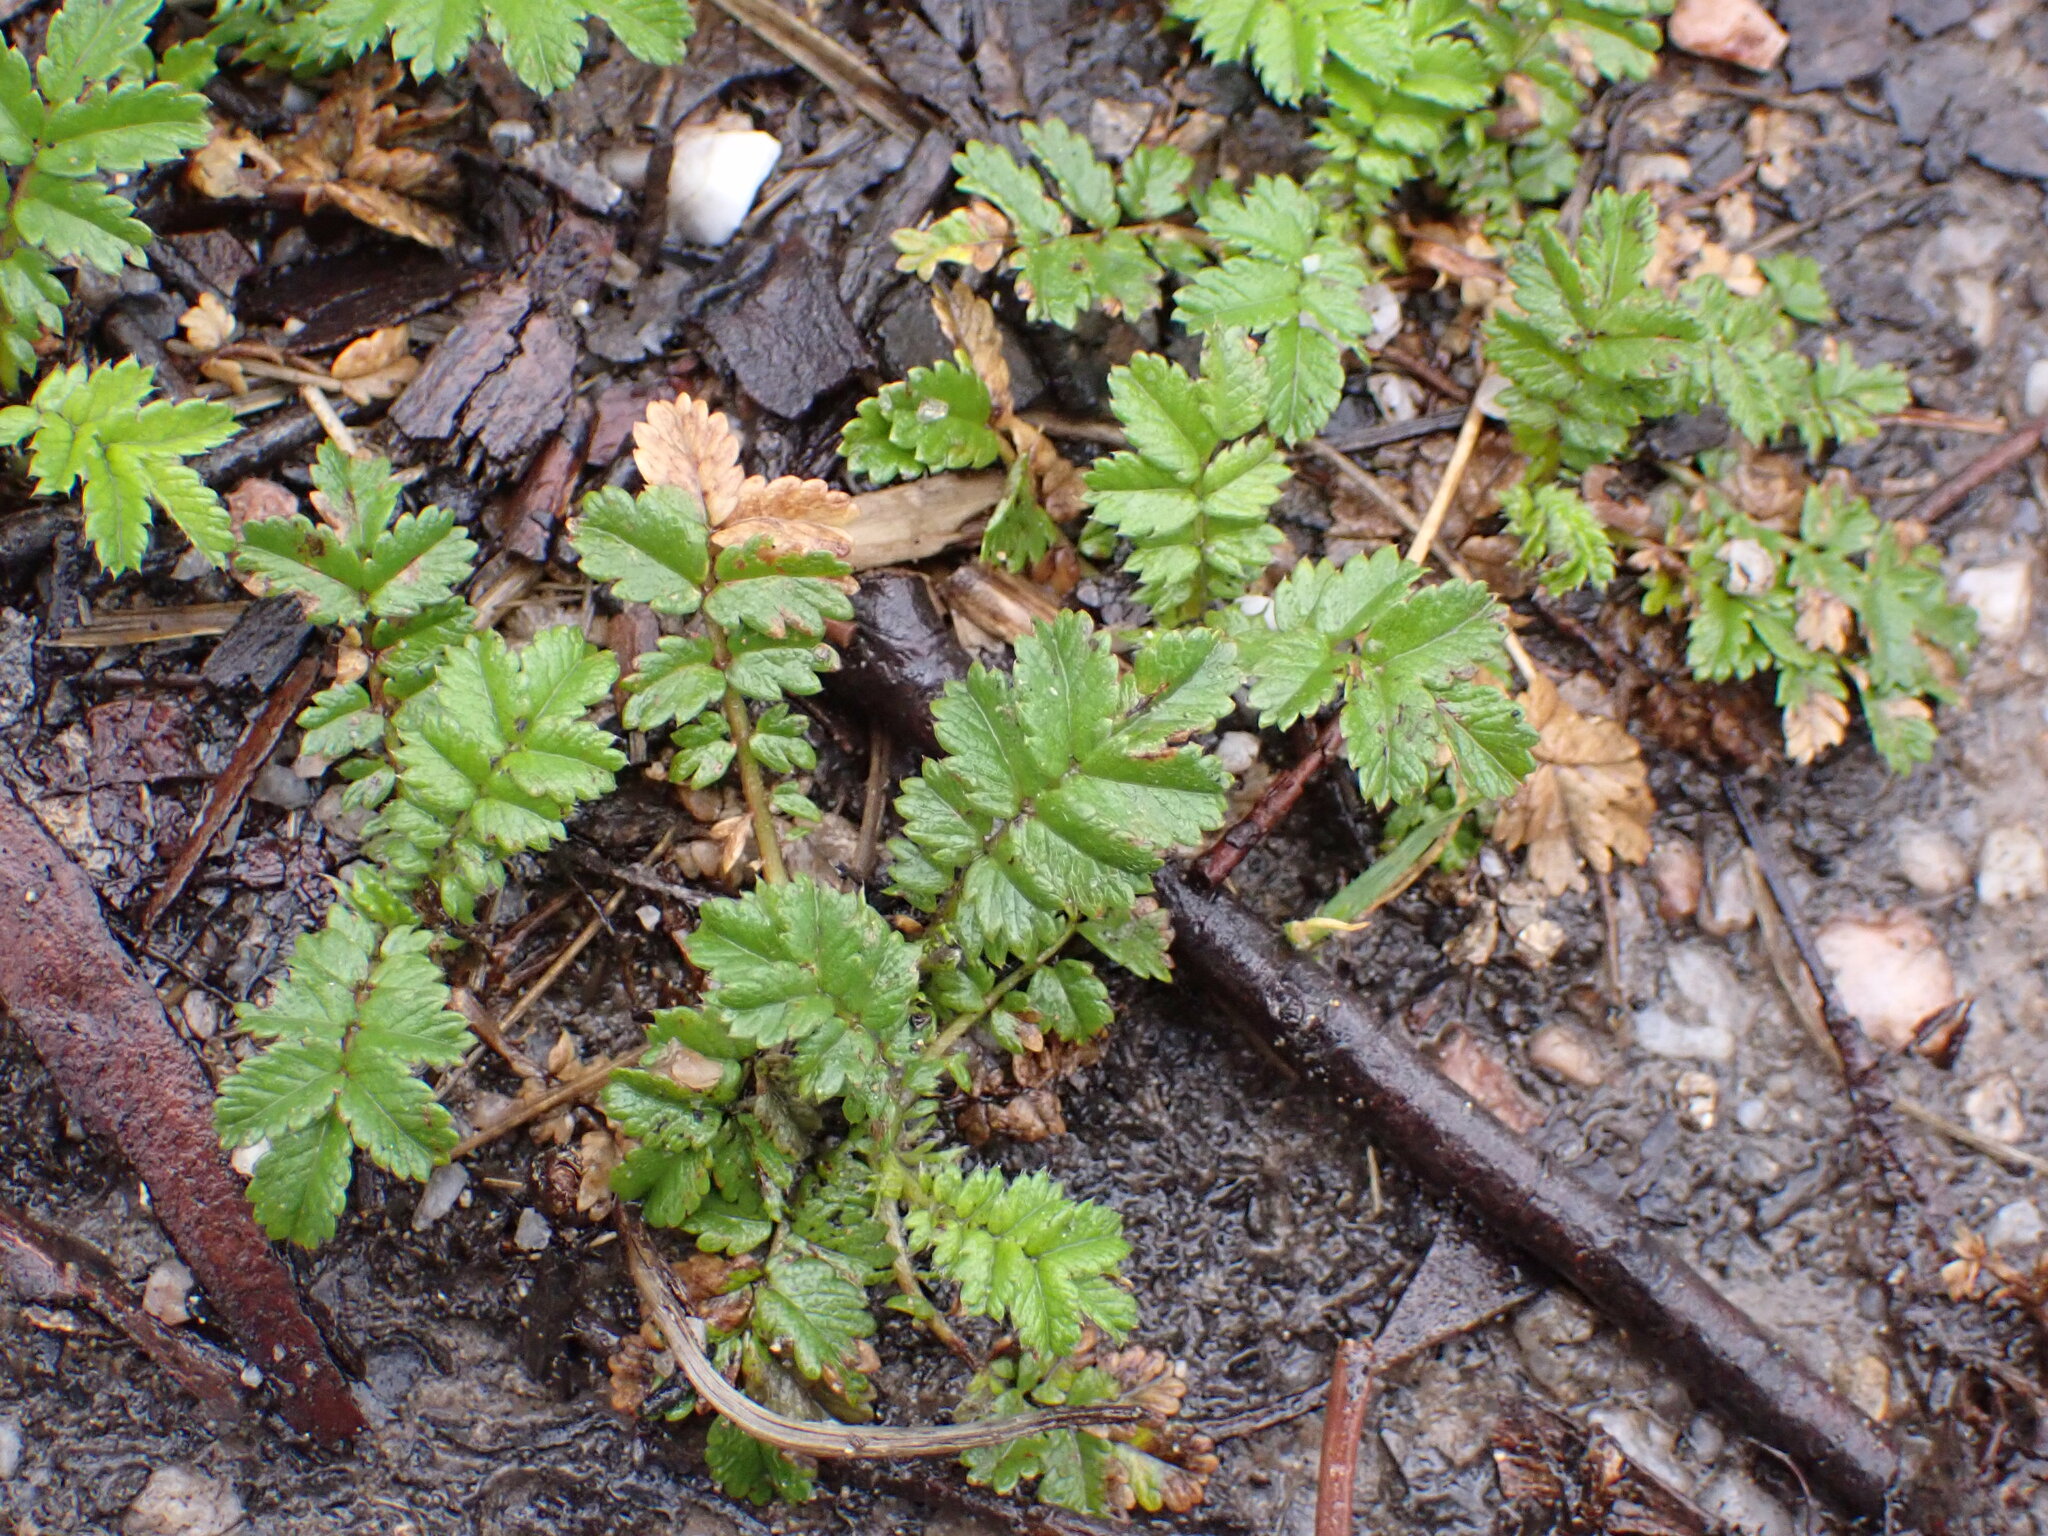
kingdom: Plantae
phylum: Tracheophyta
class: Magnoliopsida
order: Rosales
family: Rosaceae
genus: Acaena
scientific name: Acaena novae-zelandiae
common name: Pirri-pirri-bur
